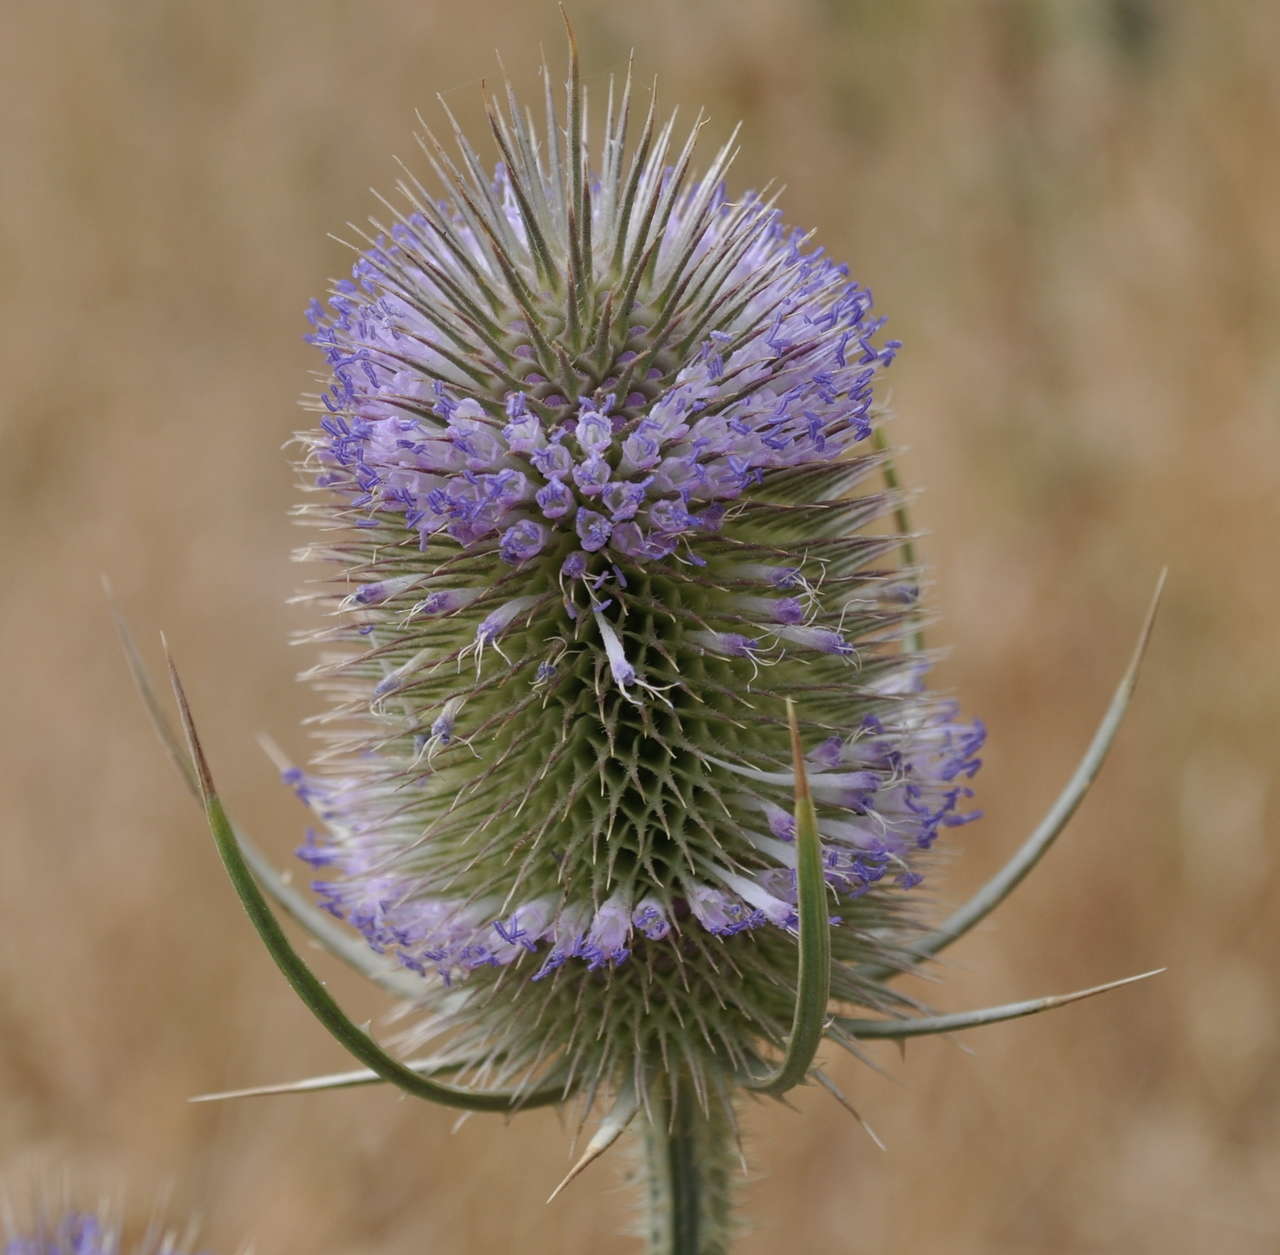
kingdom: Plantae
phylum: Tracheophyta
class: Magnoliopsida
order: Dipsacales
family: Caprifoliaceae
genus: Dipsacus
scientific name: Dipsacus fullonum
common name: Teasel
